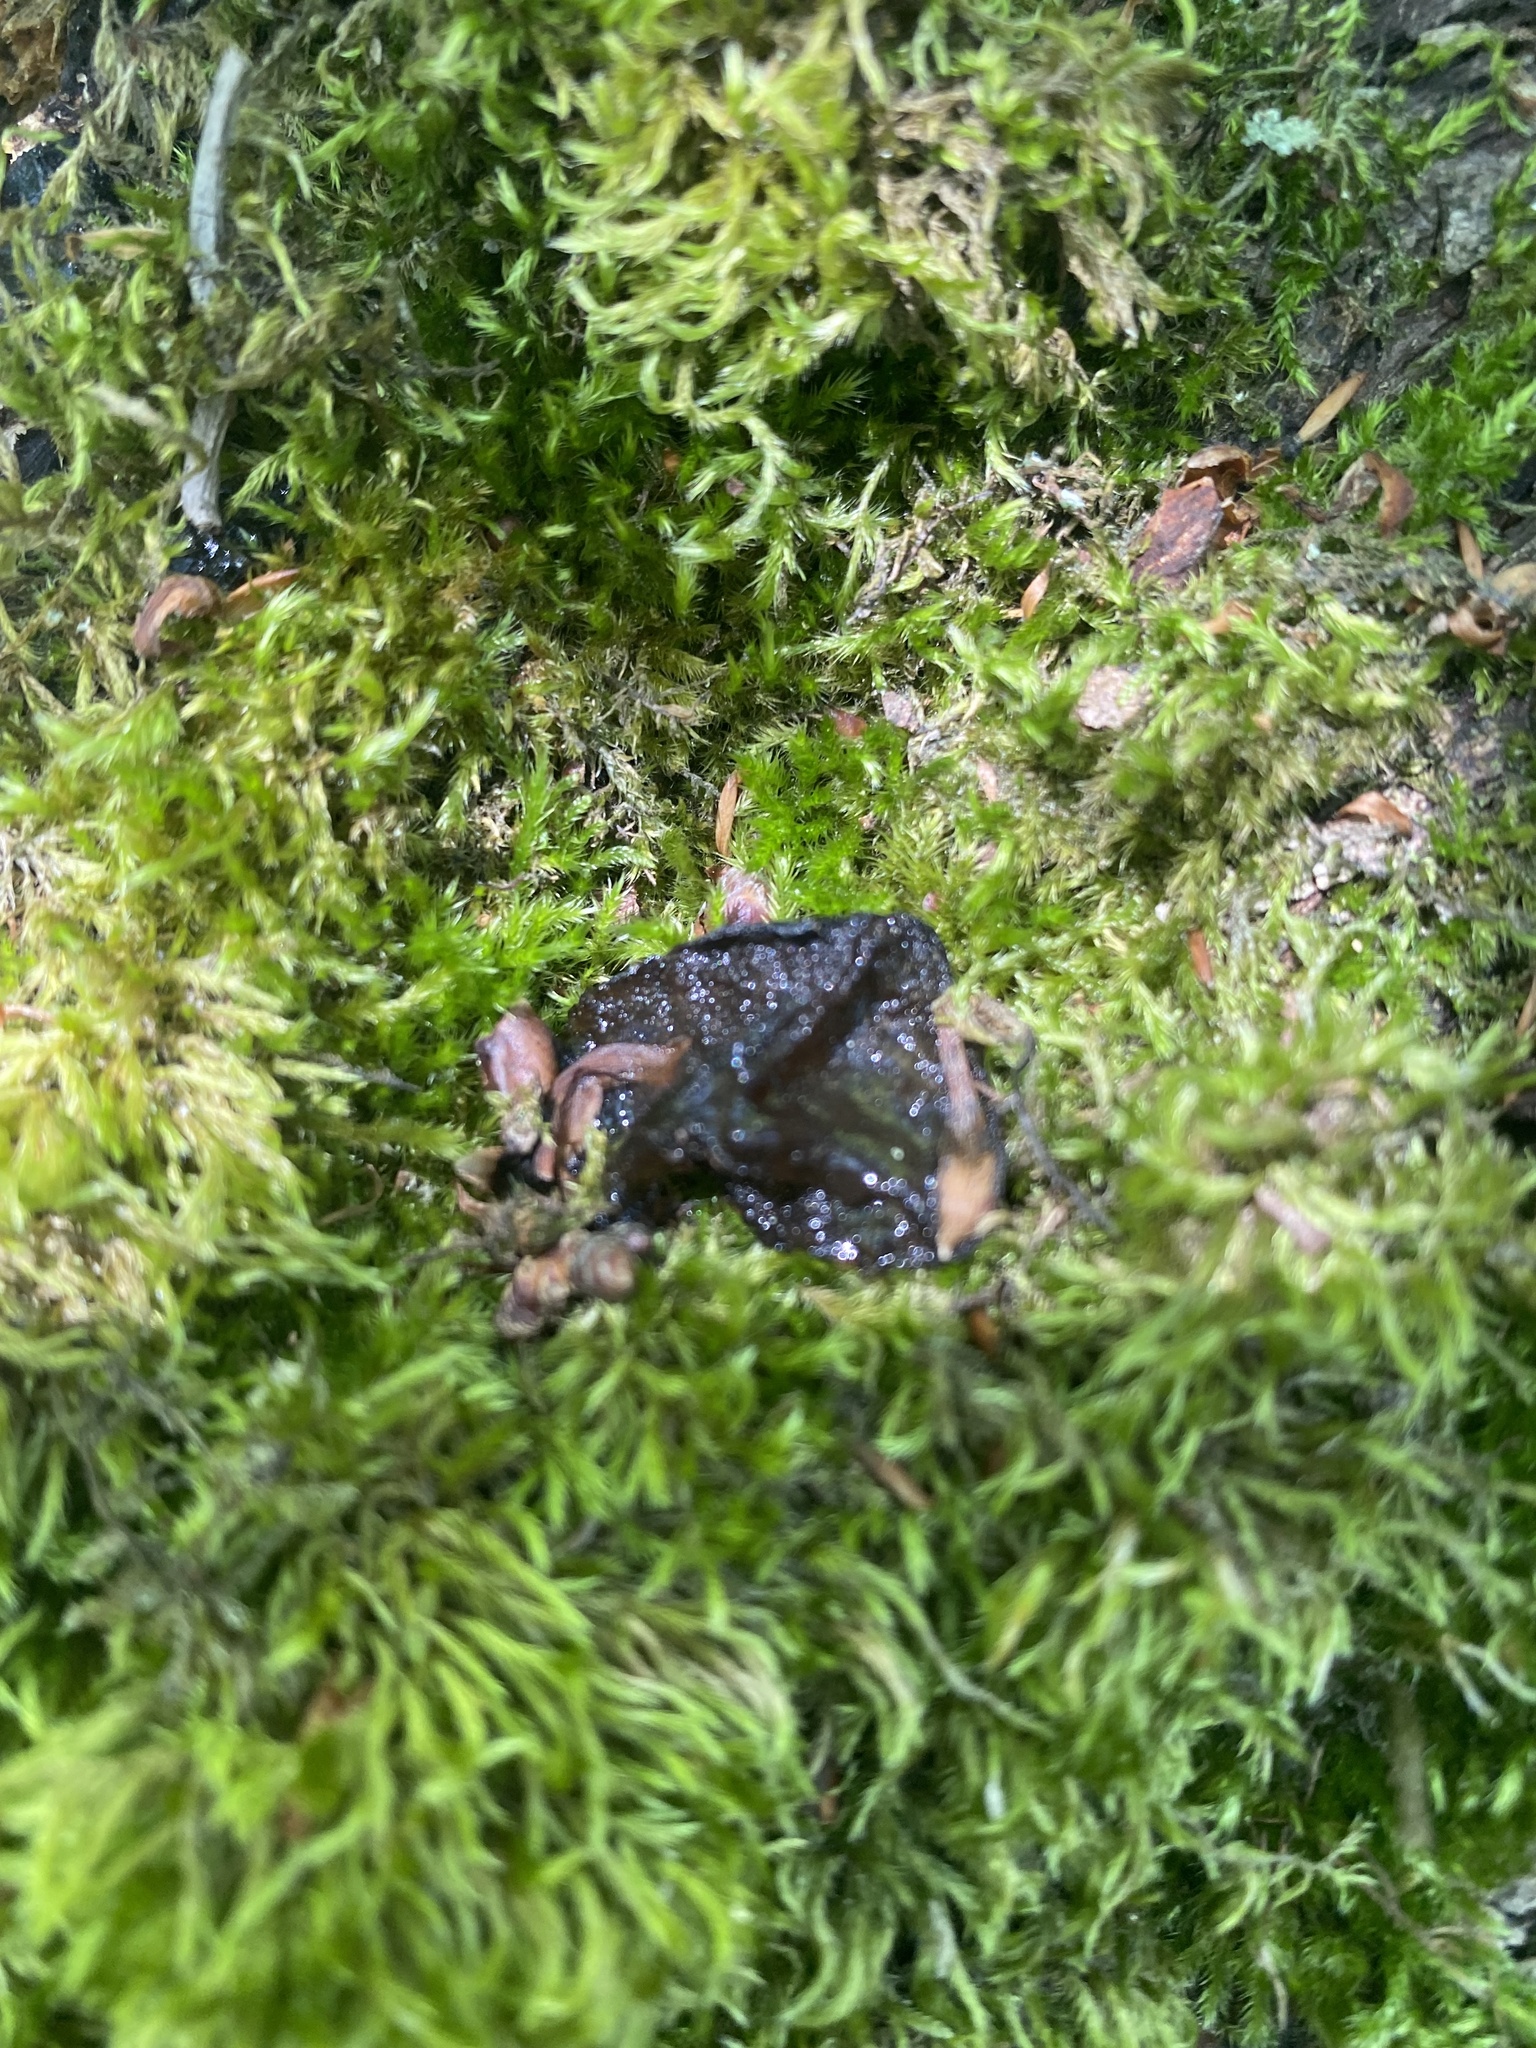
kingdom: Fungi
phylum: Basidiomycota
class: Agaricomycetes
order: Auriculariales
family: Auriculariaceae
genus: Exidia
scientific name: Exidia glandulosa
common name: Witches' butter
